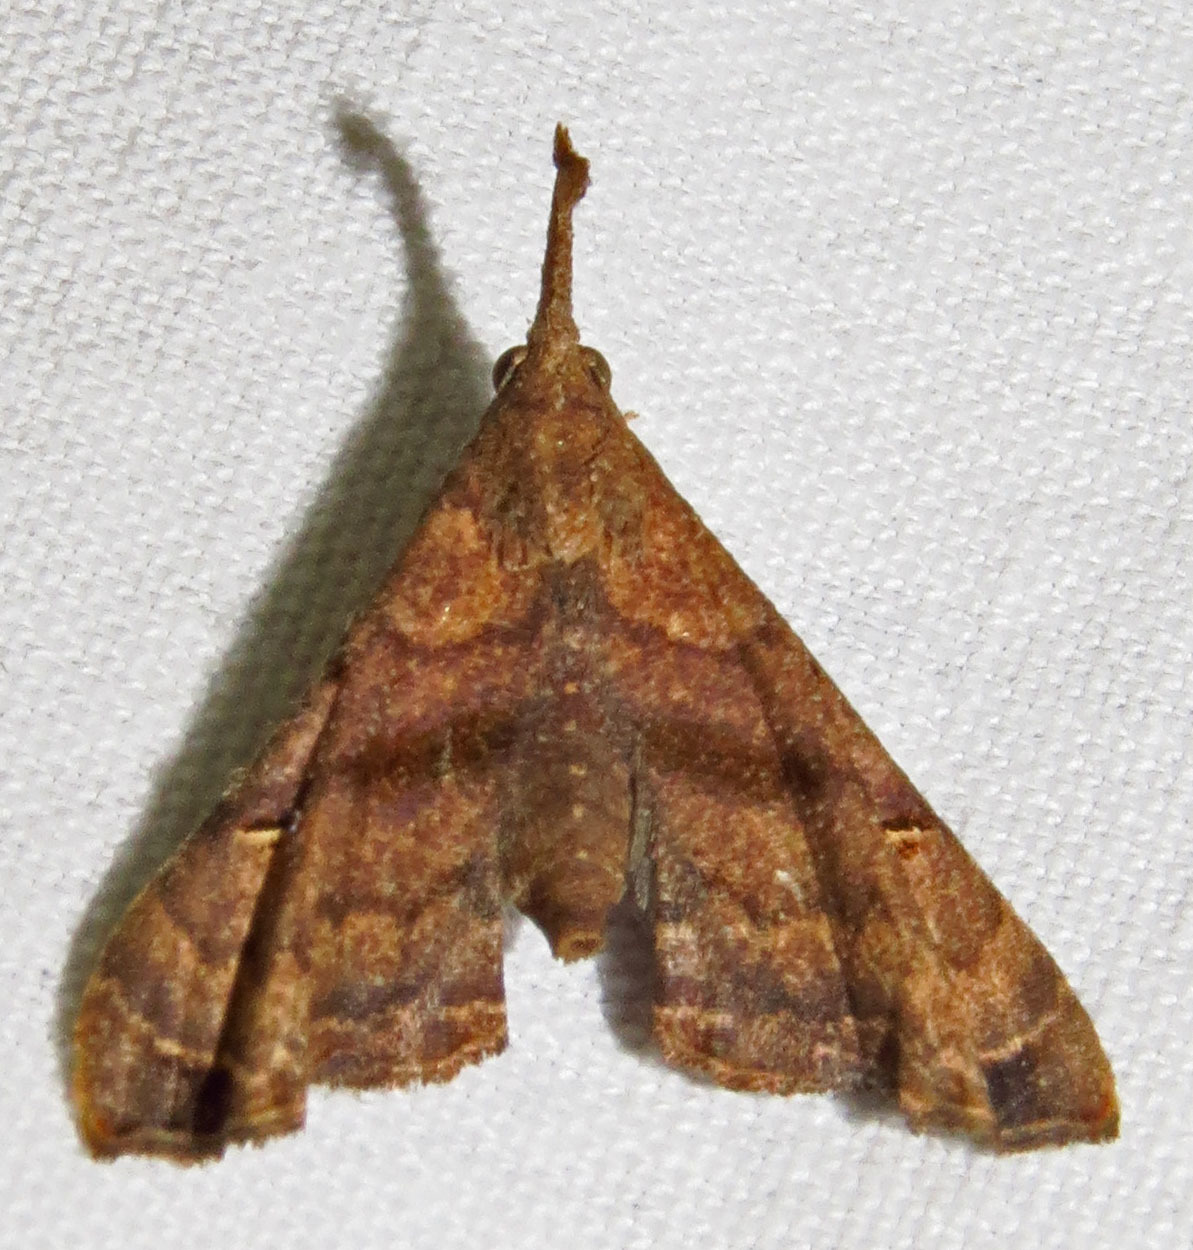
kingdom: Animalia
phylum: Arthropoda
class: Insecta
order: Lepidoptera
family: Erebidae
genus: Palthis
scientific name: Palthis asopialis
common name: Faint-spotted palthis moth
